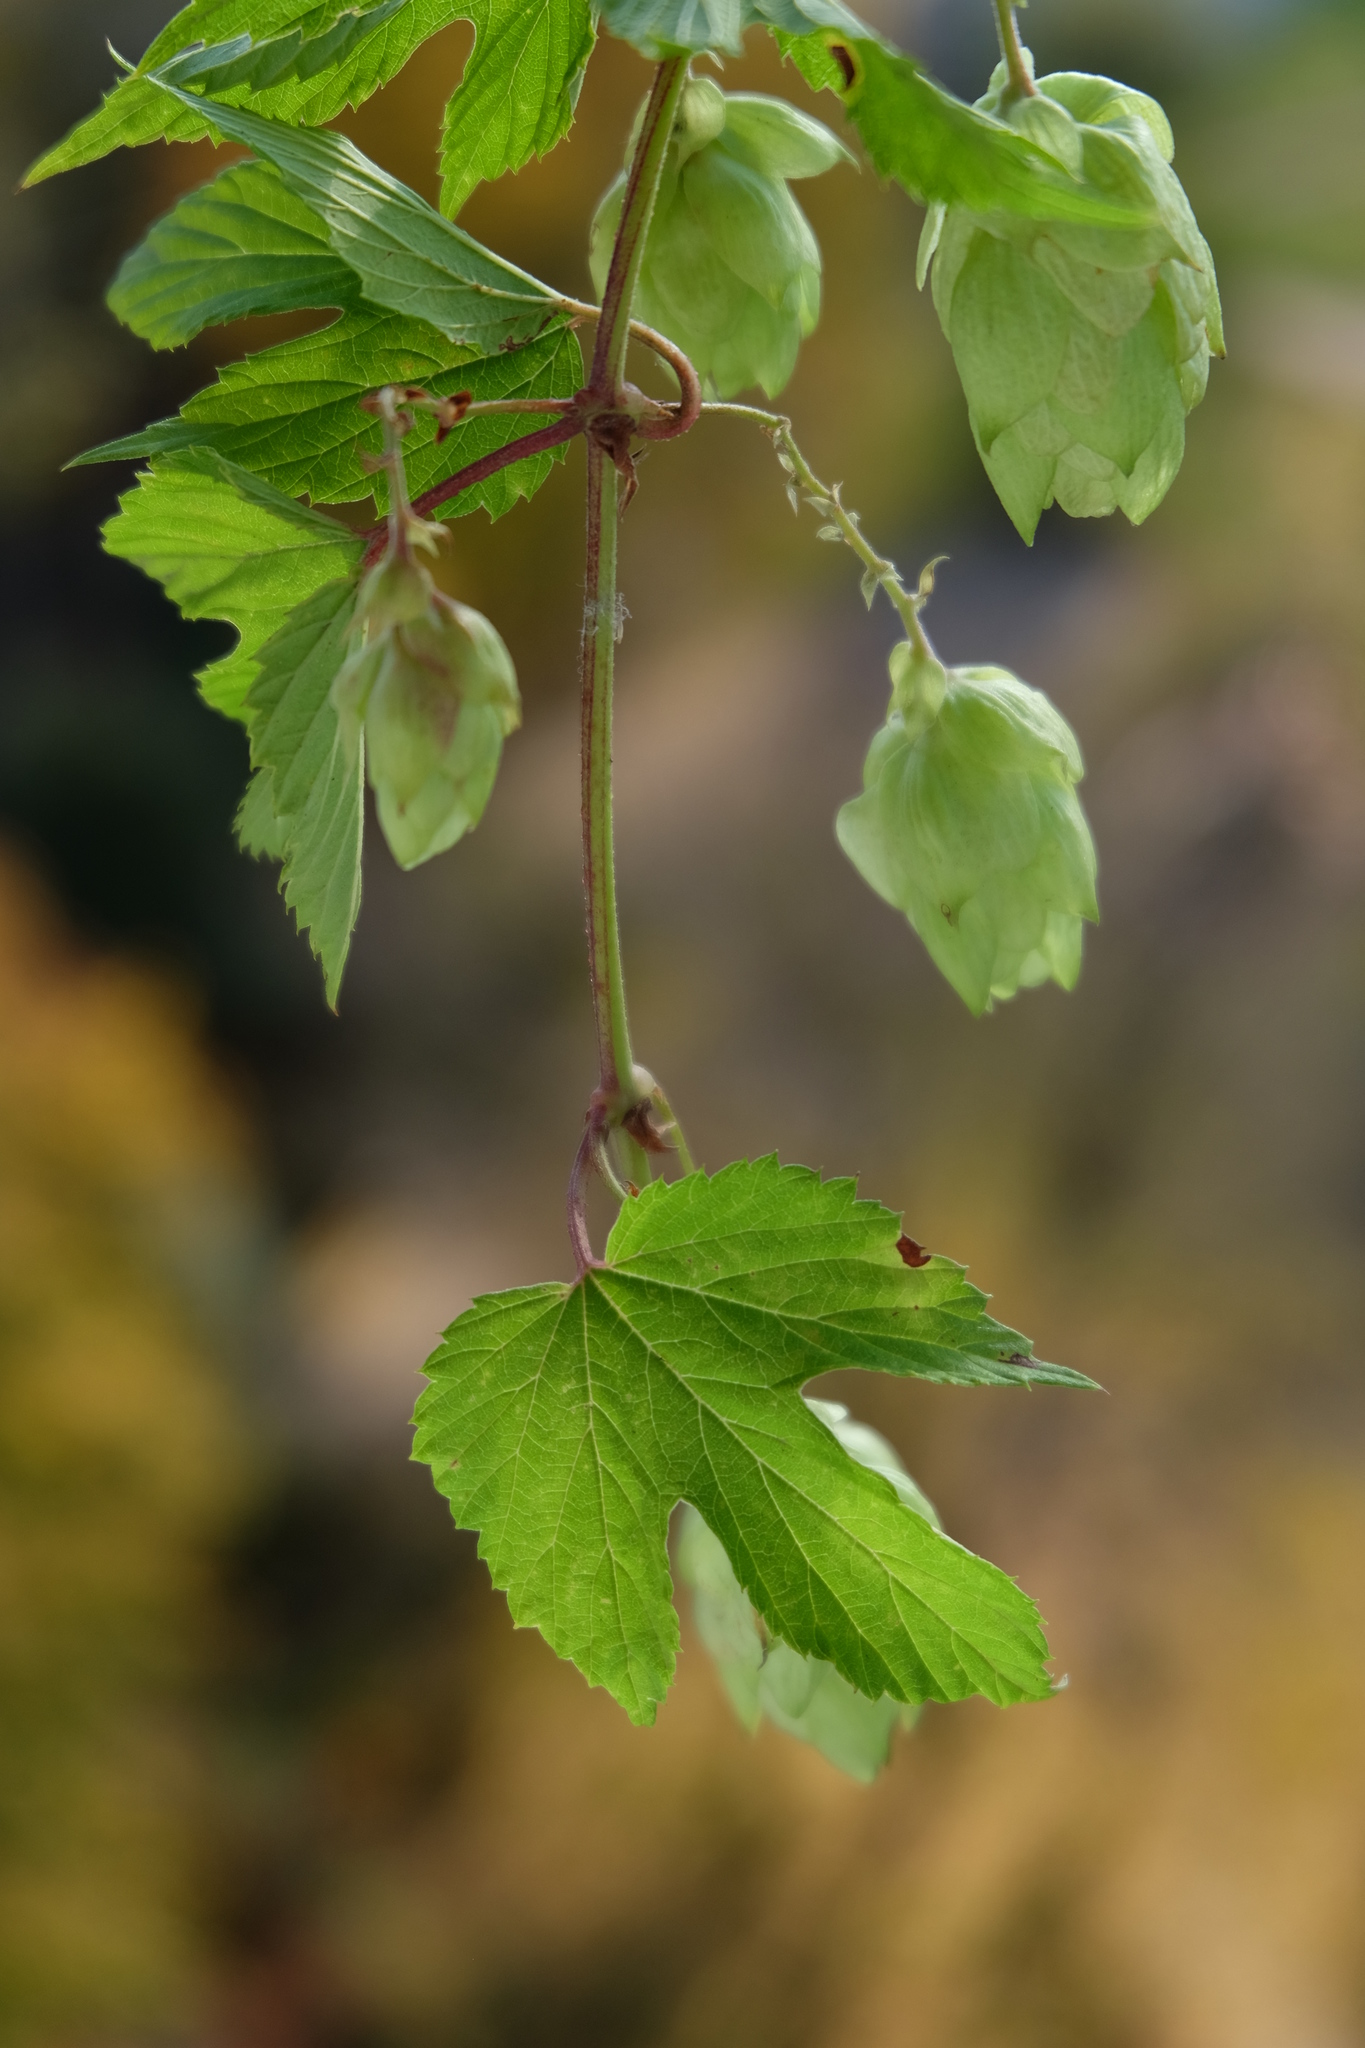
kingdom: Plantae
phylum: Tracheophyta
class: Magnoliopsida
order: Rosales
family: Cannabaceae
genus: Humulus
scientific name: Humulus lupulus
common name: Hop
